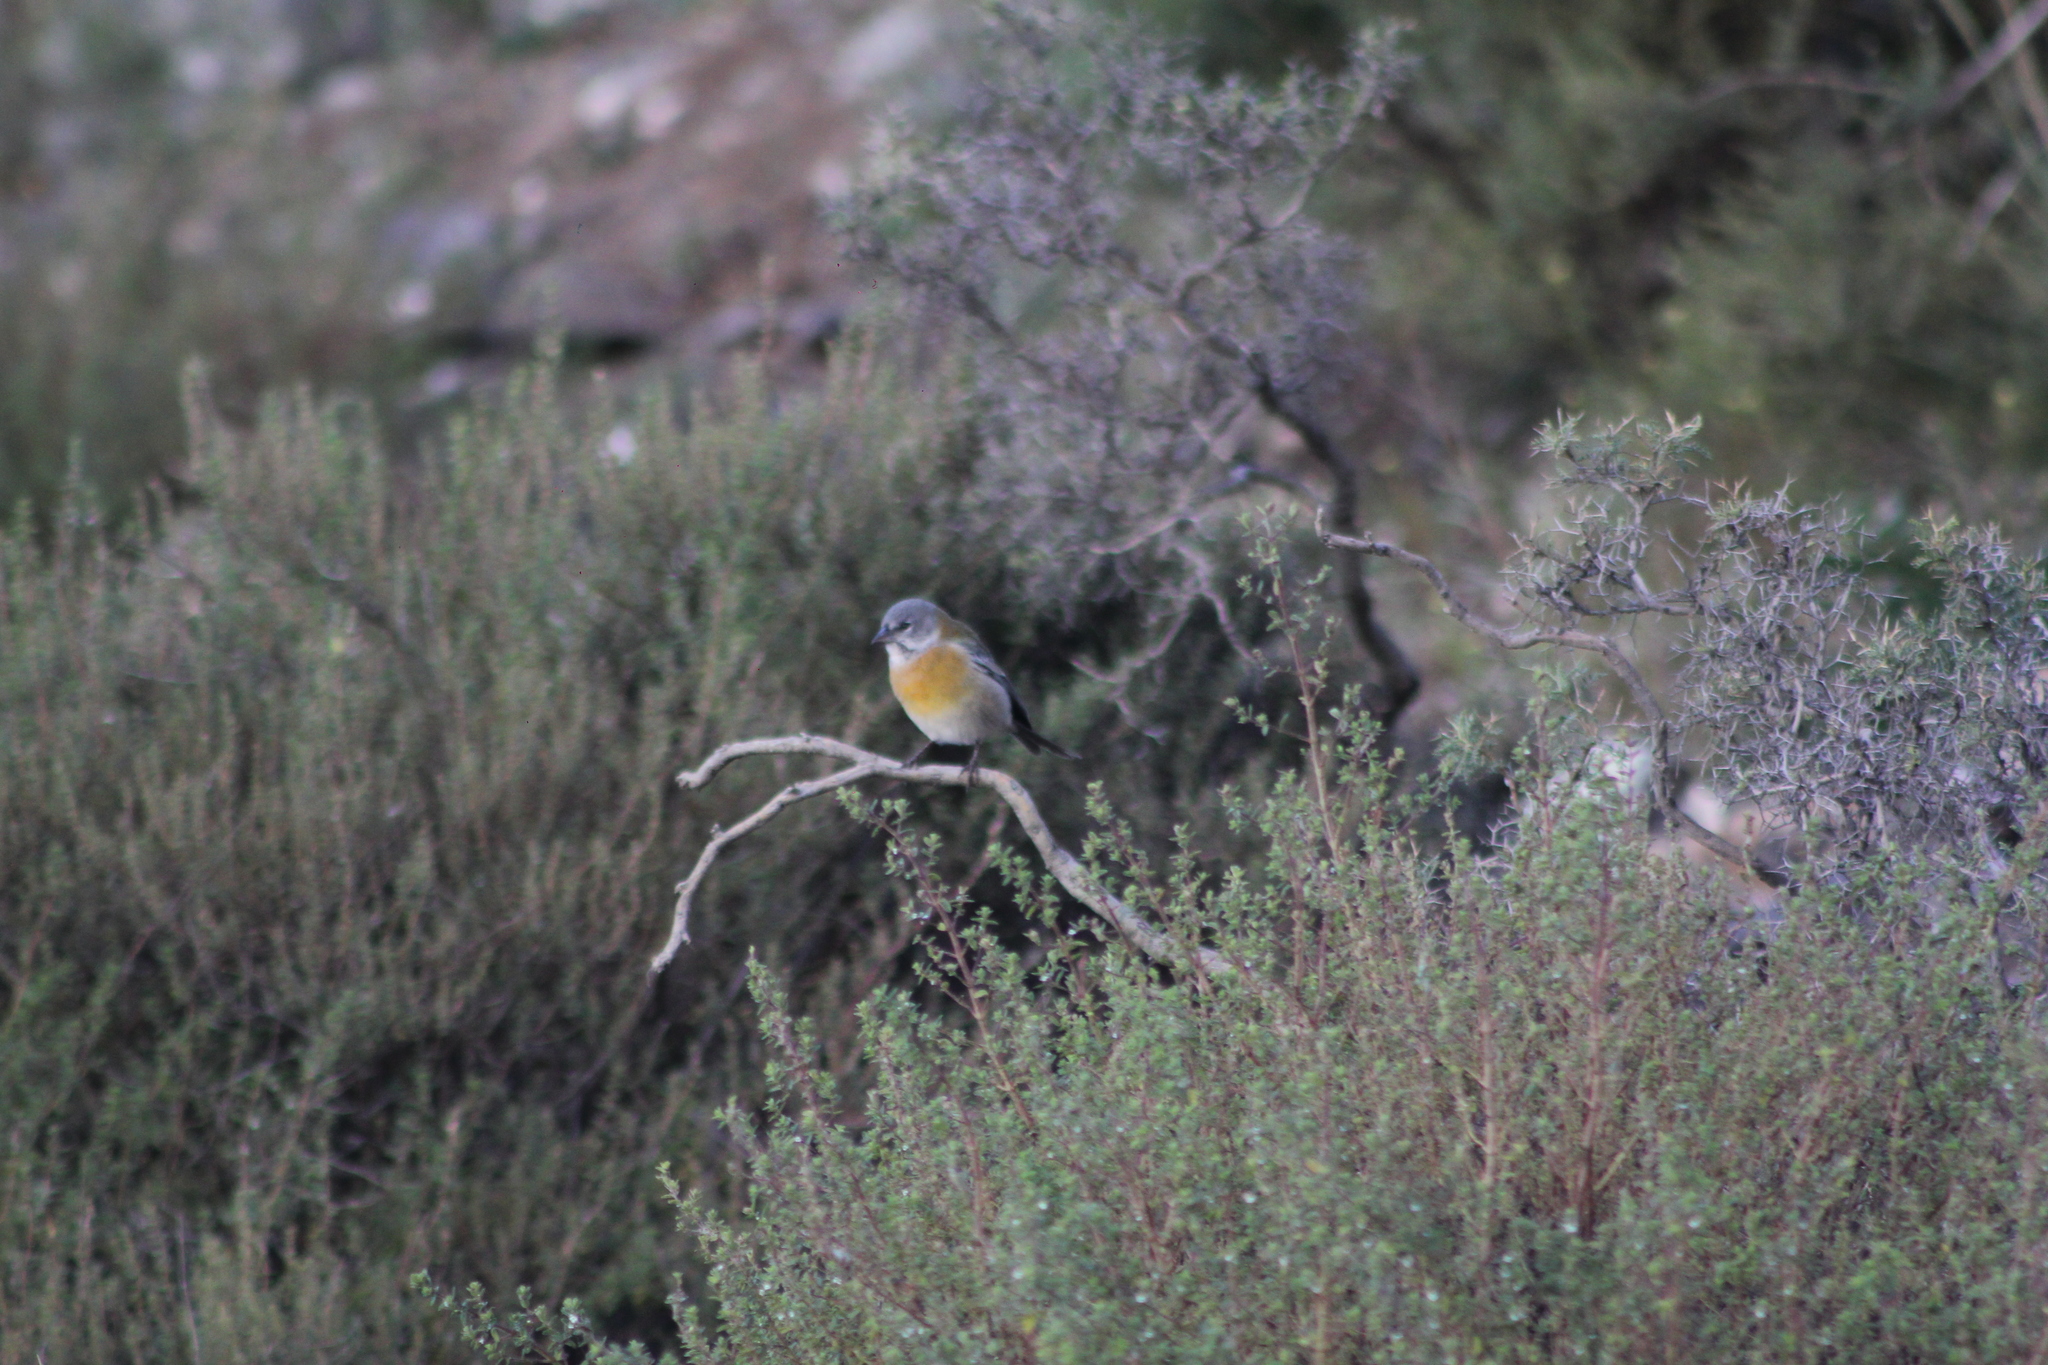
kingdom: Animalia
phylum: Chordata
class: Aves
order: Passeriformes
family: Thraupidae
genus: Phrygilus
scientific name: Phrygilus gayi
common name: Grey-hooded sierra finch
